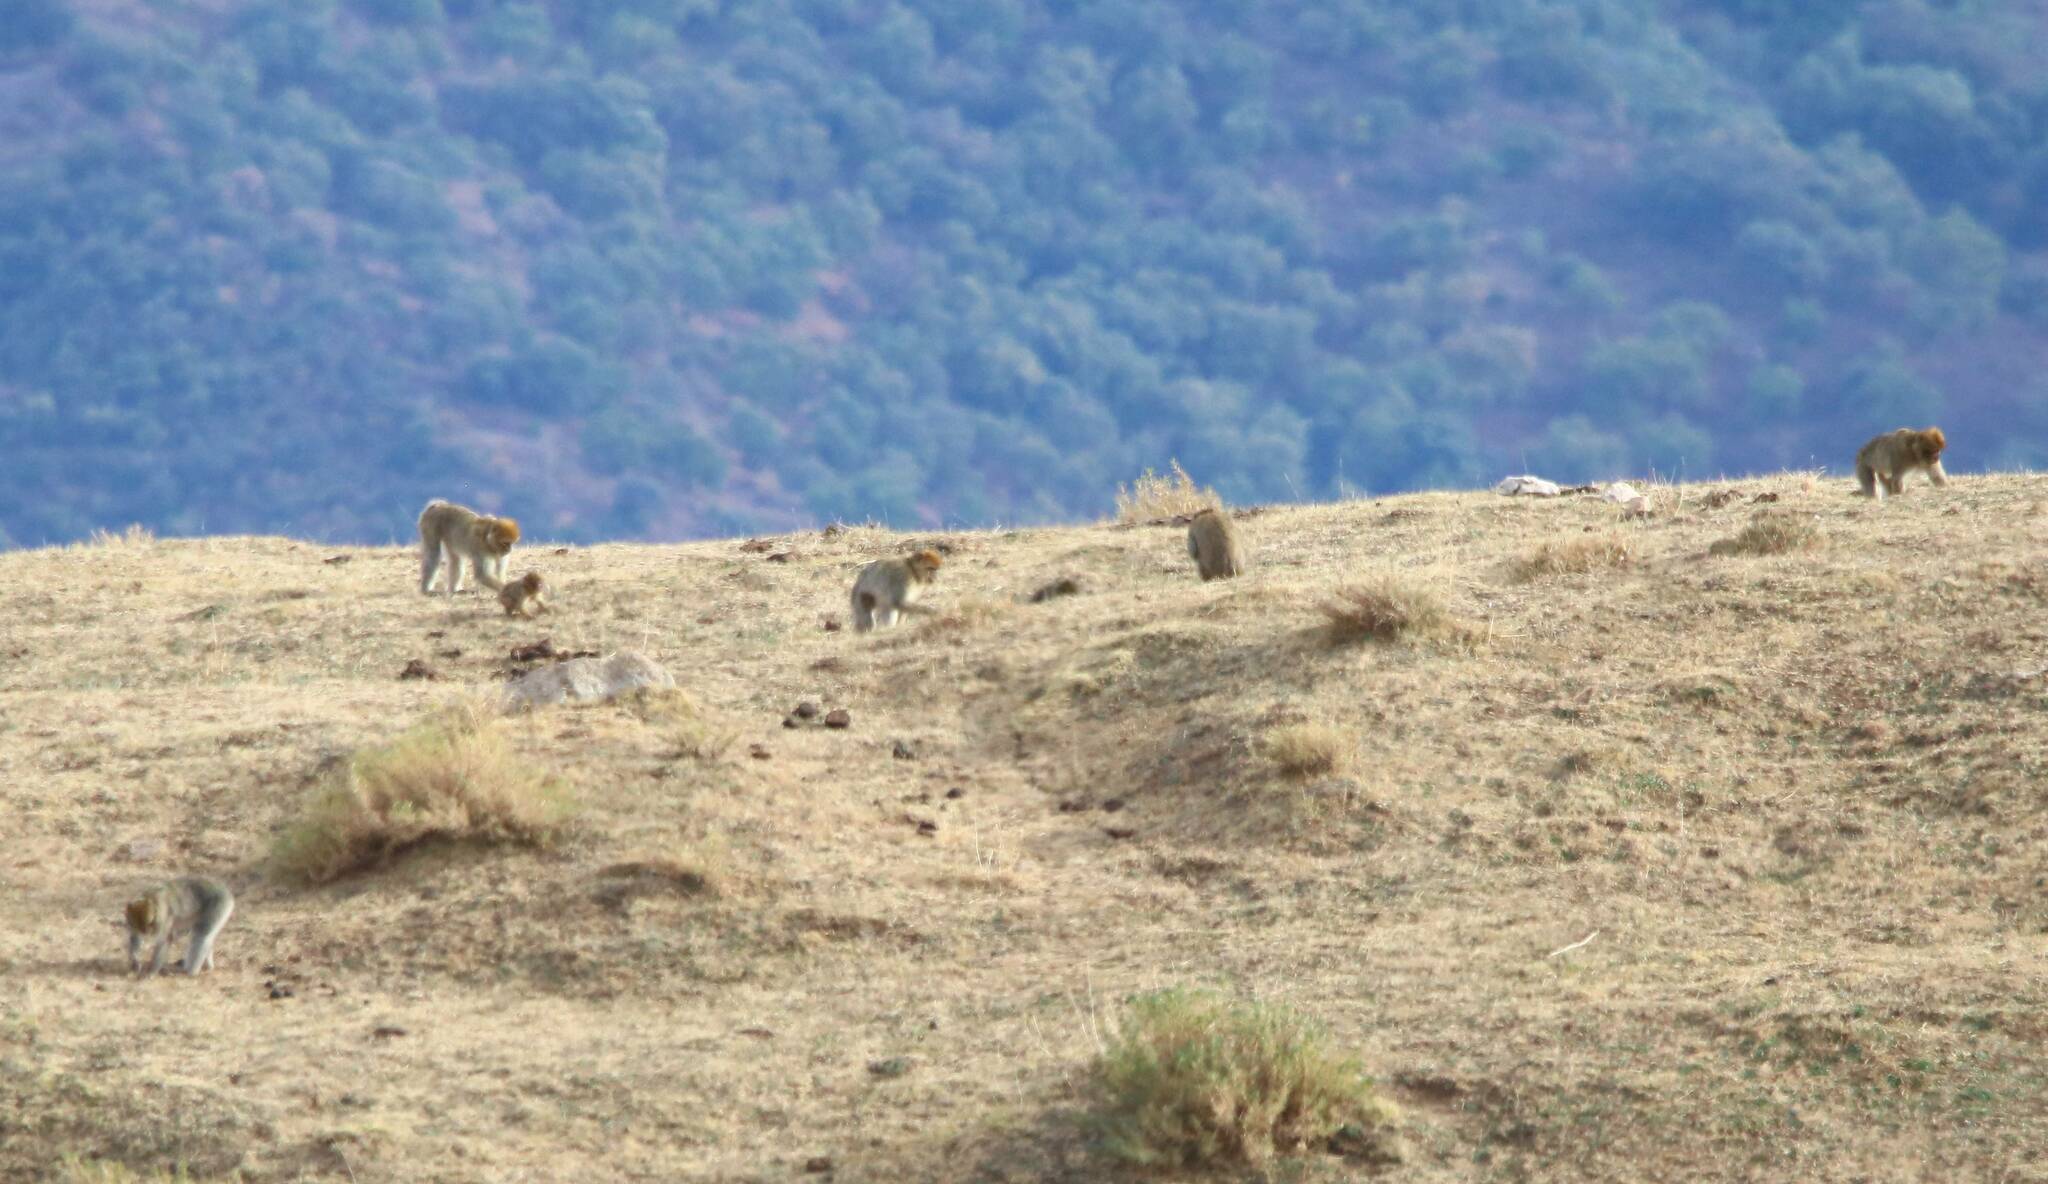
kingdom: Animalia
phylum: Chordata
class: Mammalia
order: Primates
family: Cercopithecidae
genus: Macaca
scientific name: Macaca sylvanus
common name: Barbary macaque
